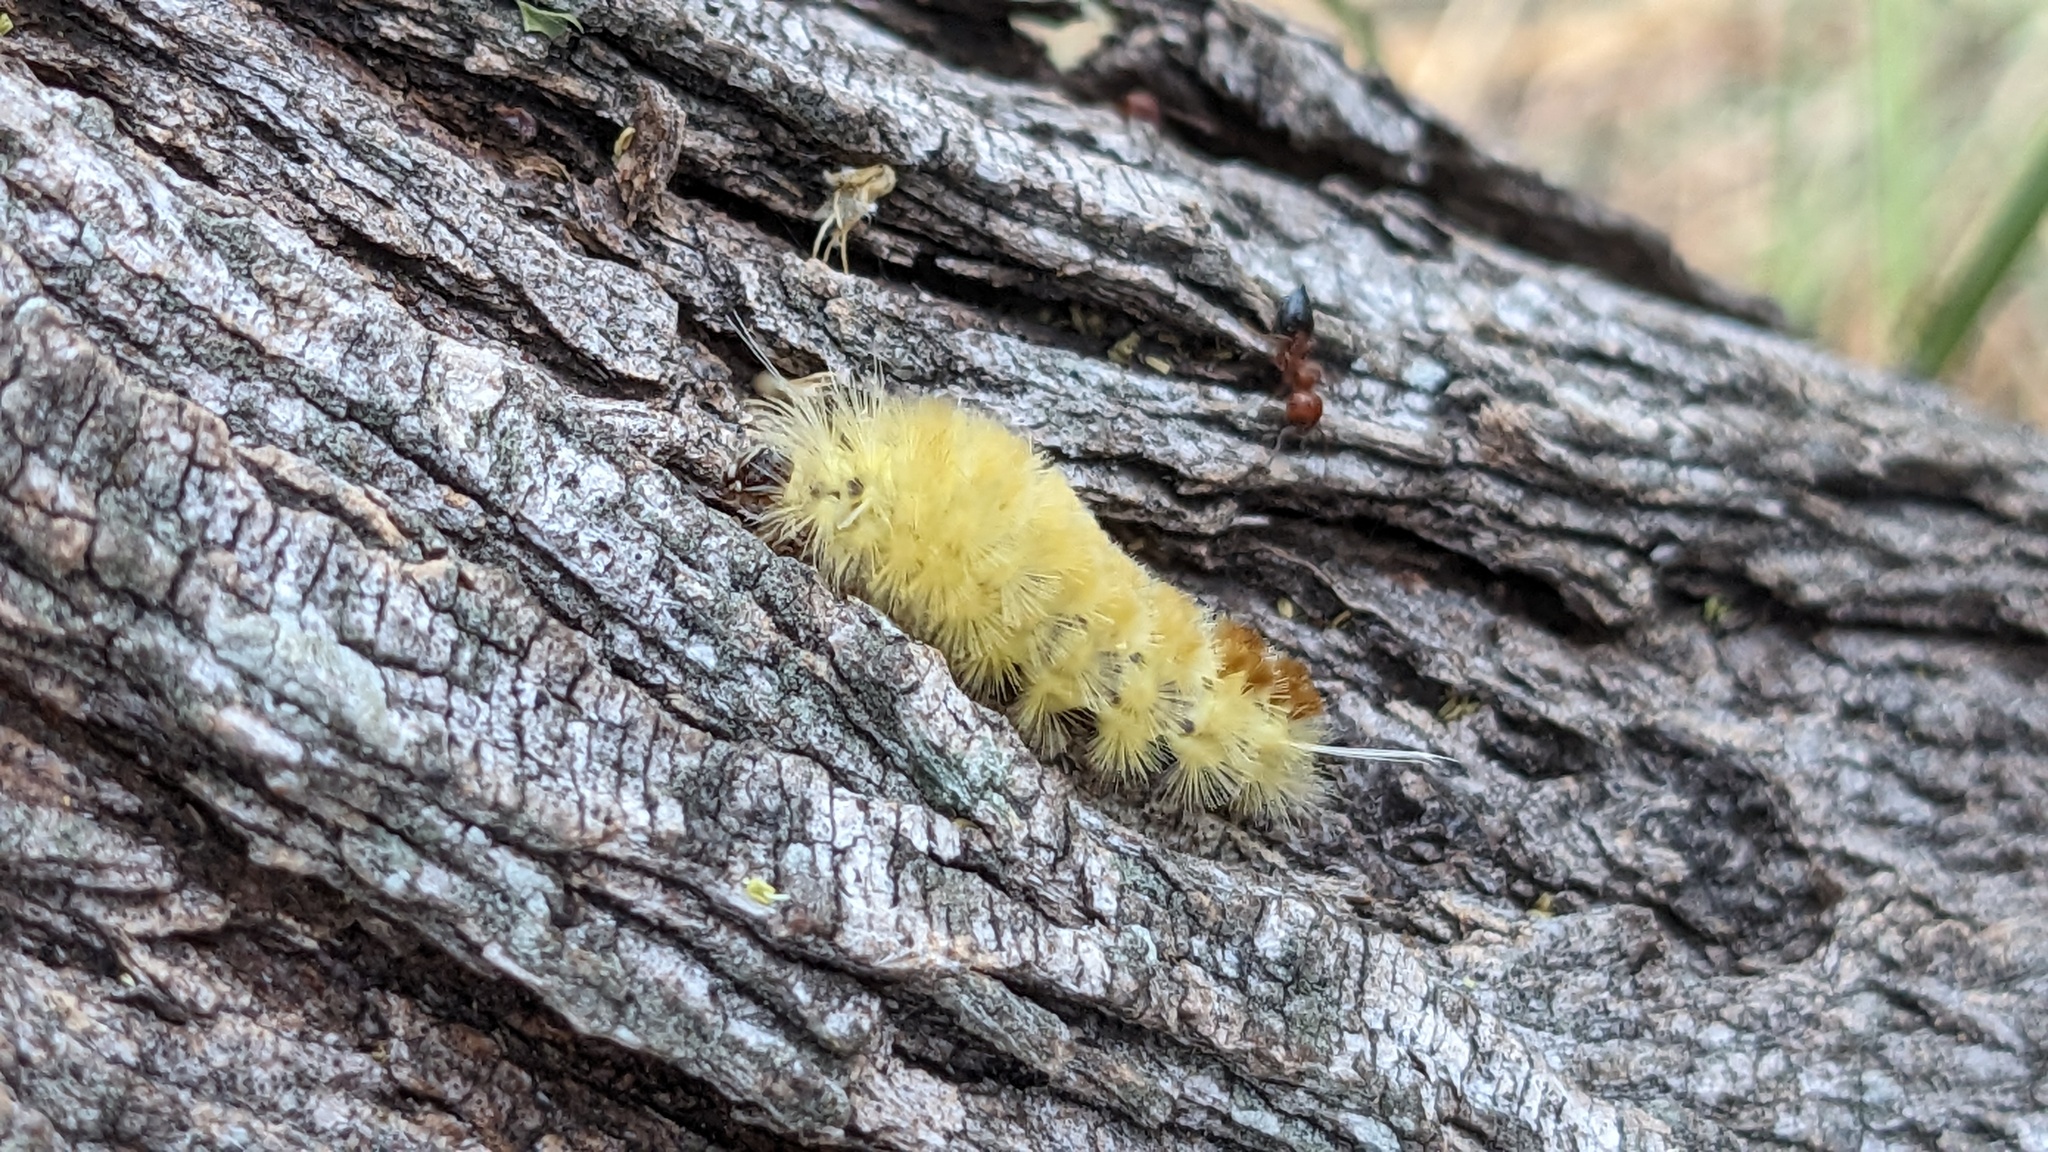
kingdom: Animalia
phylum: Arthropoda
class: Insecta
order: Lepidoptera
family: Erebidae
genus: Lophocampa
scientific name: Lophocampa annulosa
